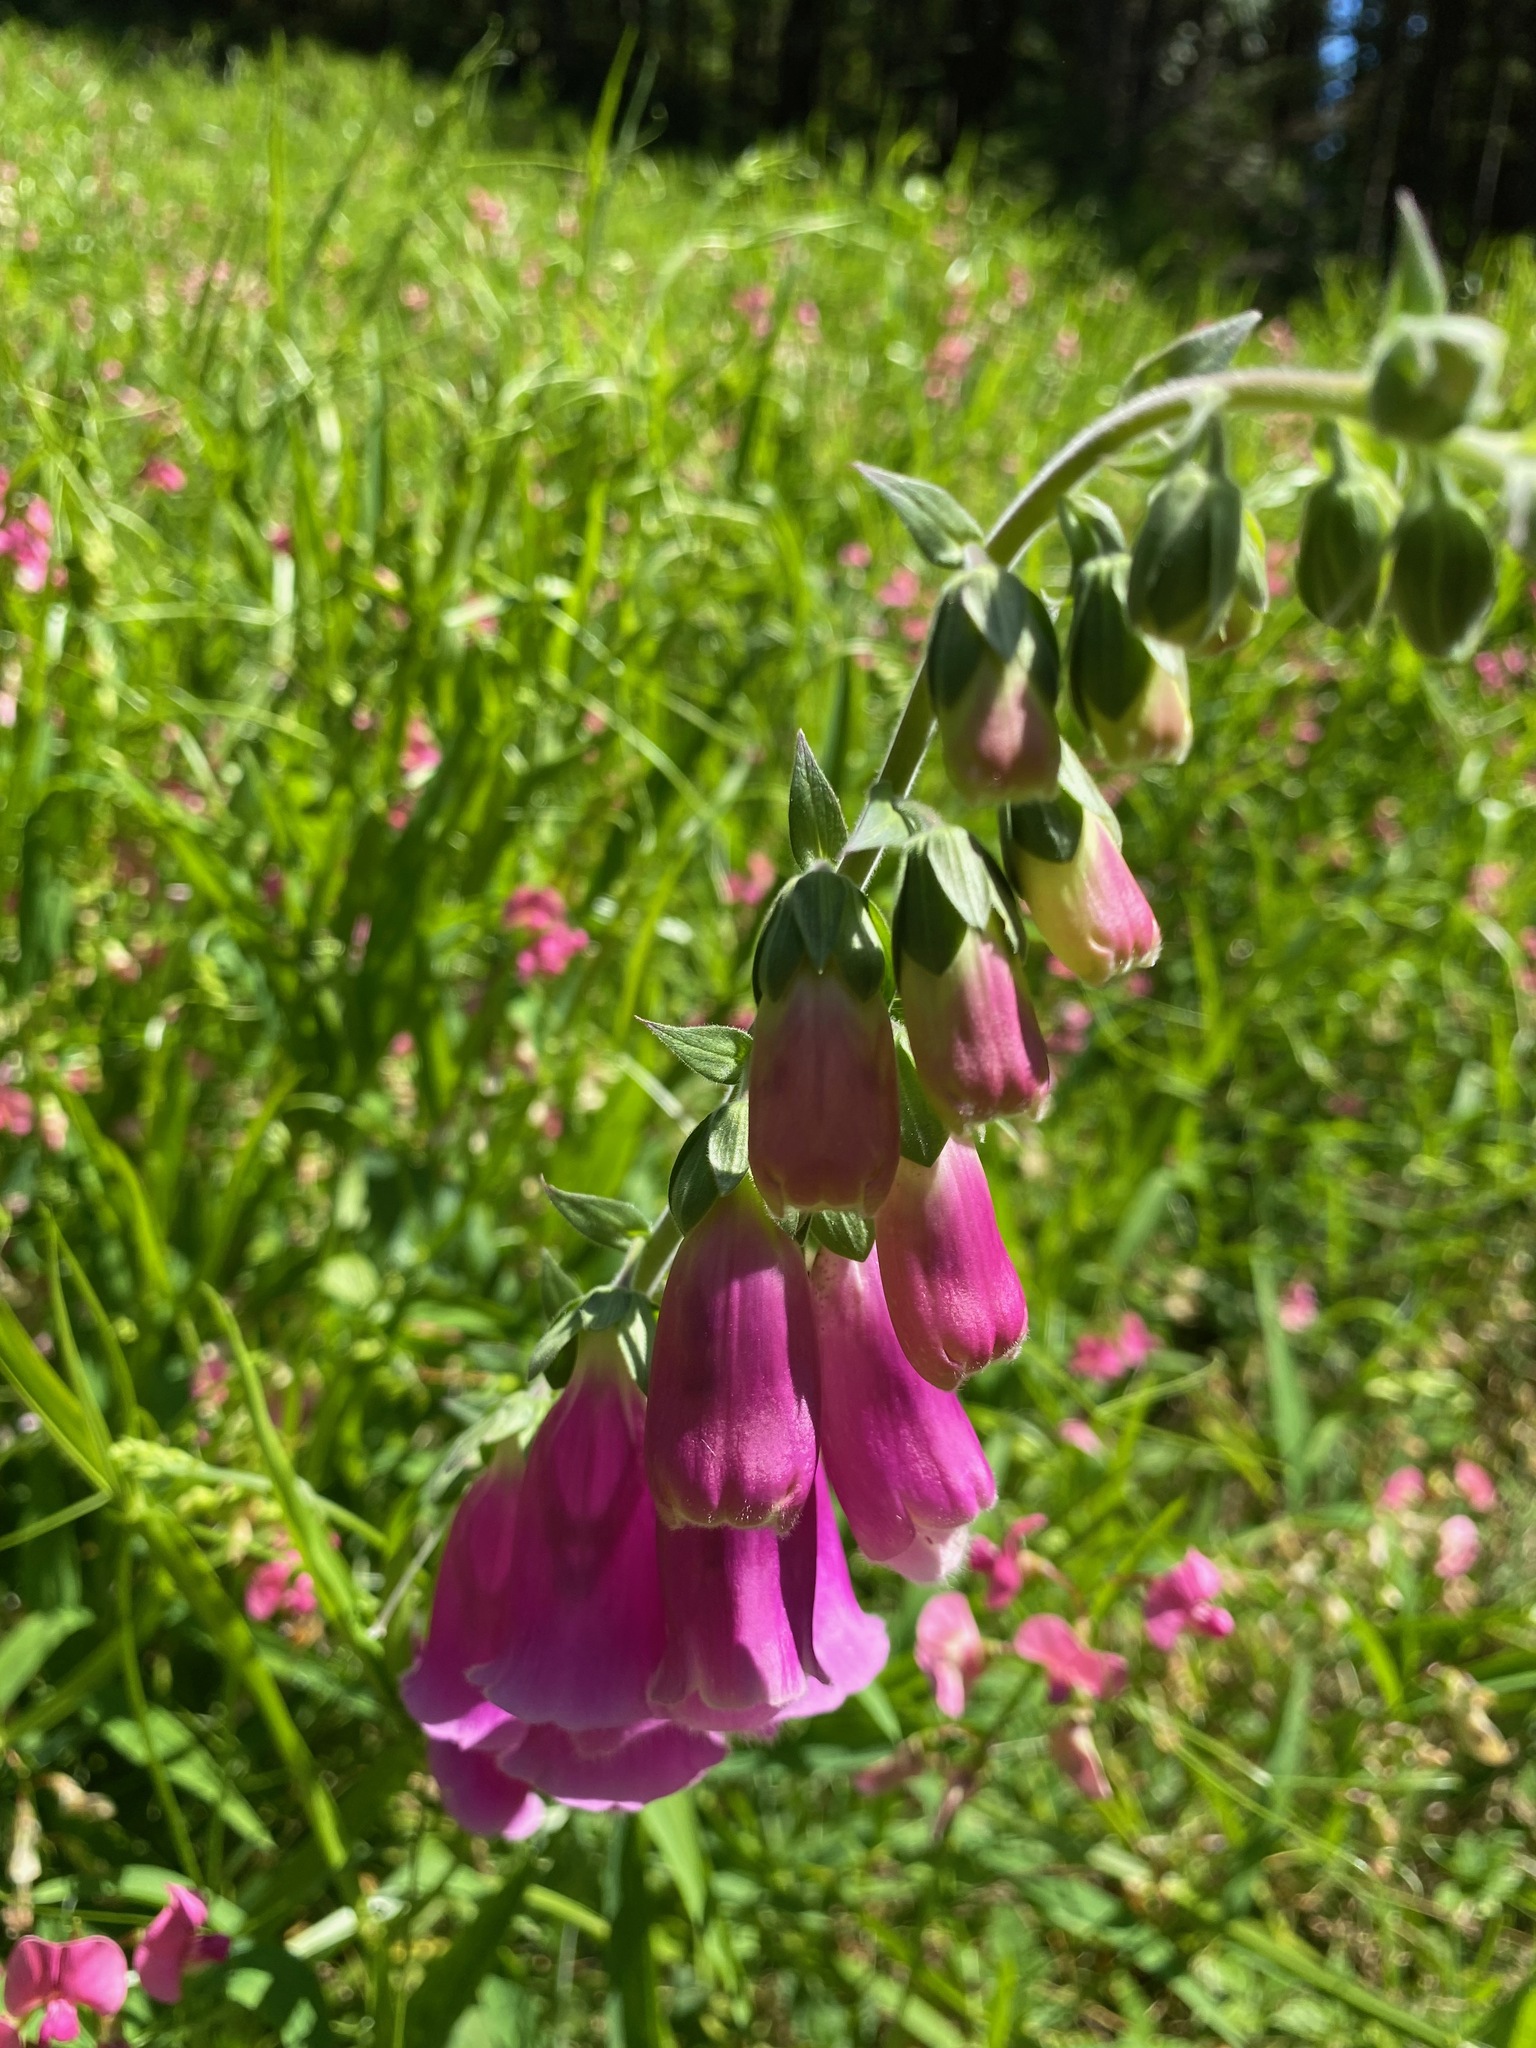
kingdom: Plantae
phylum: Tracheophyta
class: Magnoliopsida
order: Lamiales
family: Plantaginaceae
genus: Digitalis
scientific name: Digitalis purpurea
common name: Foxglove
